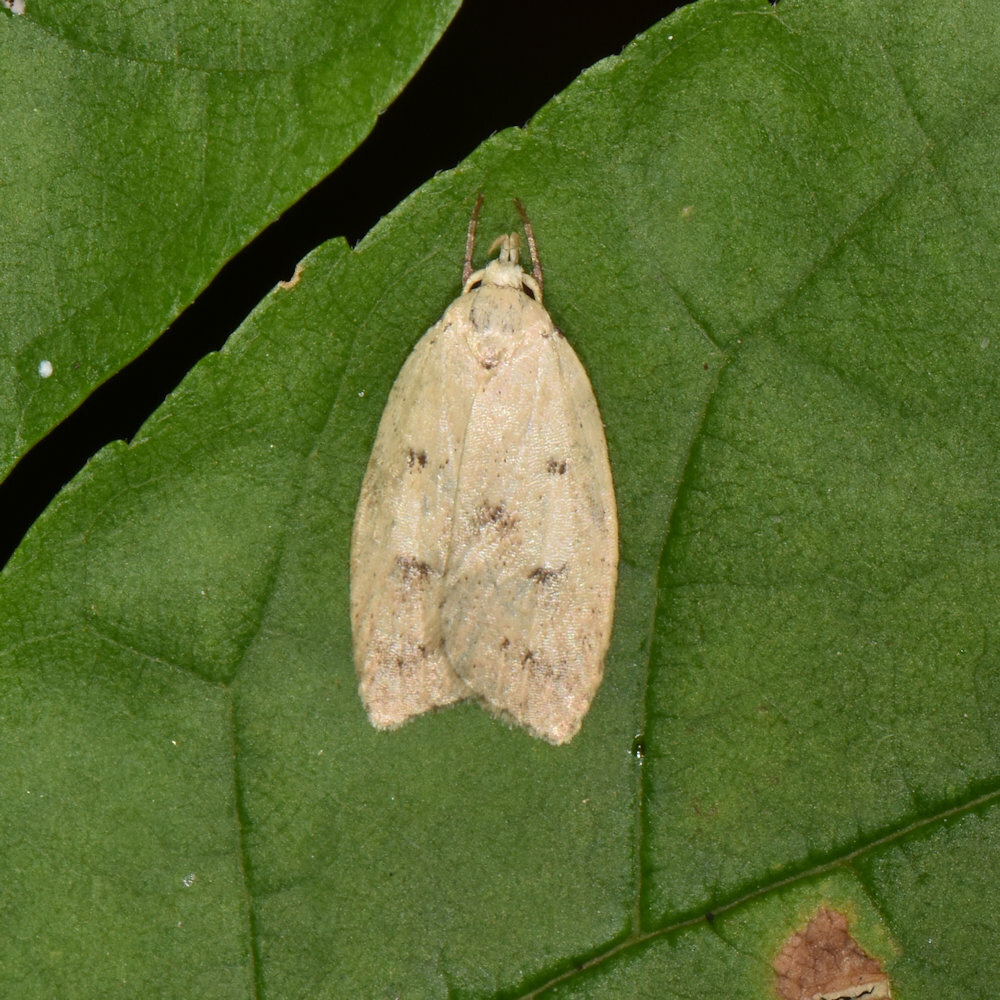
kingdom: Animalia
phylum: Arthropoda
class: Insecta
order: Lepidoptera
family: Peleopodidae
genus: Machimia
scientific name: Machimia tentoriferella
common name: Gold-striped leaftier moth
